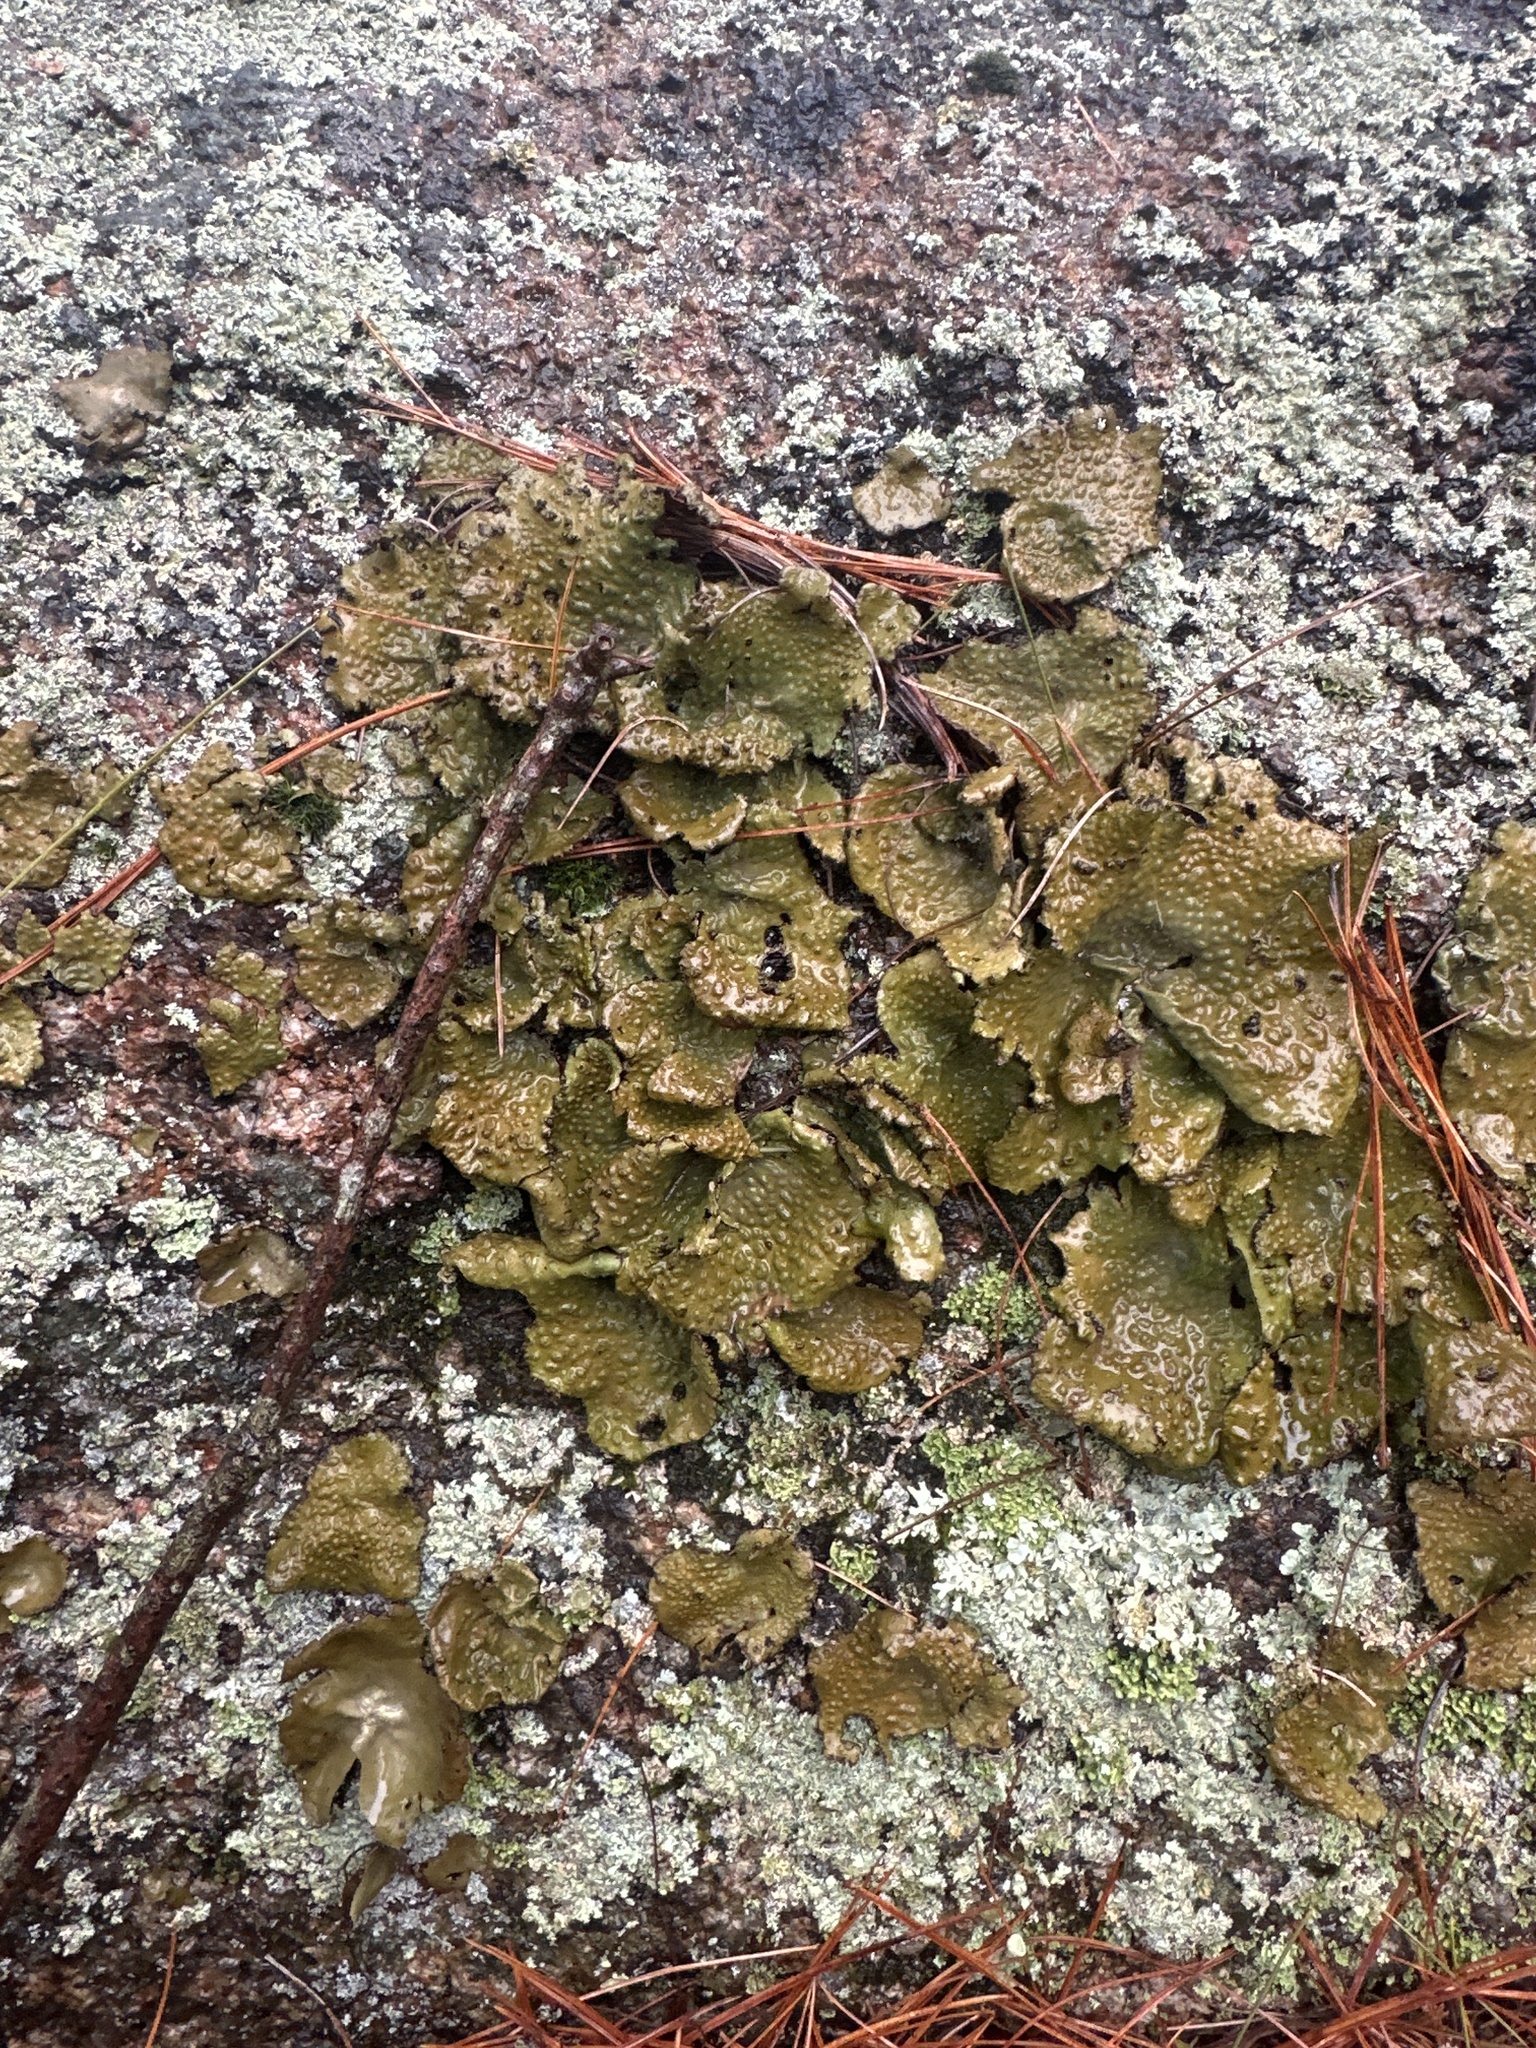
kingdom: Fungi
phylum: Ascomycota
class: Lecanoromycetes
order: Umbilicariales
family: Umbilicariaceae
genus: Lasallia
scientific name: Lasallia papulosa
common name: Common toadskin lichen
